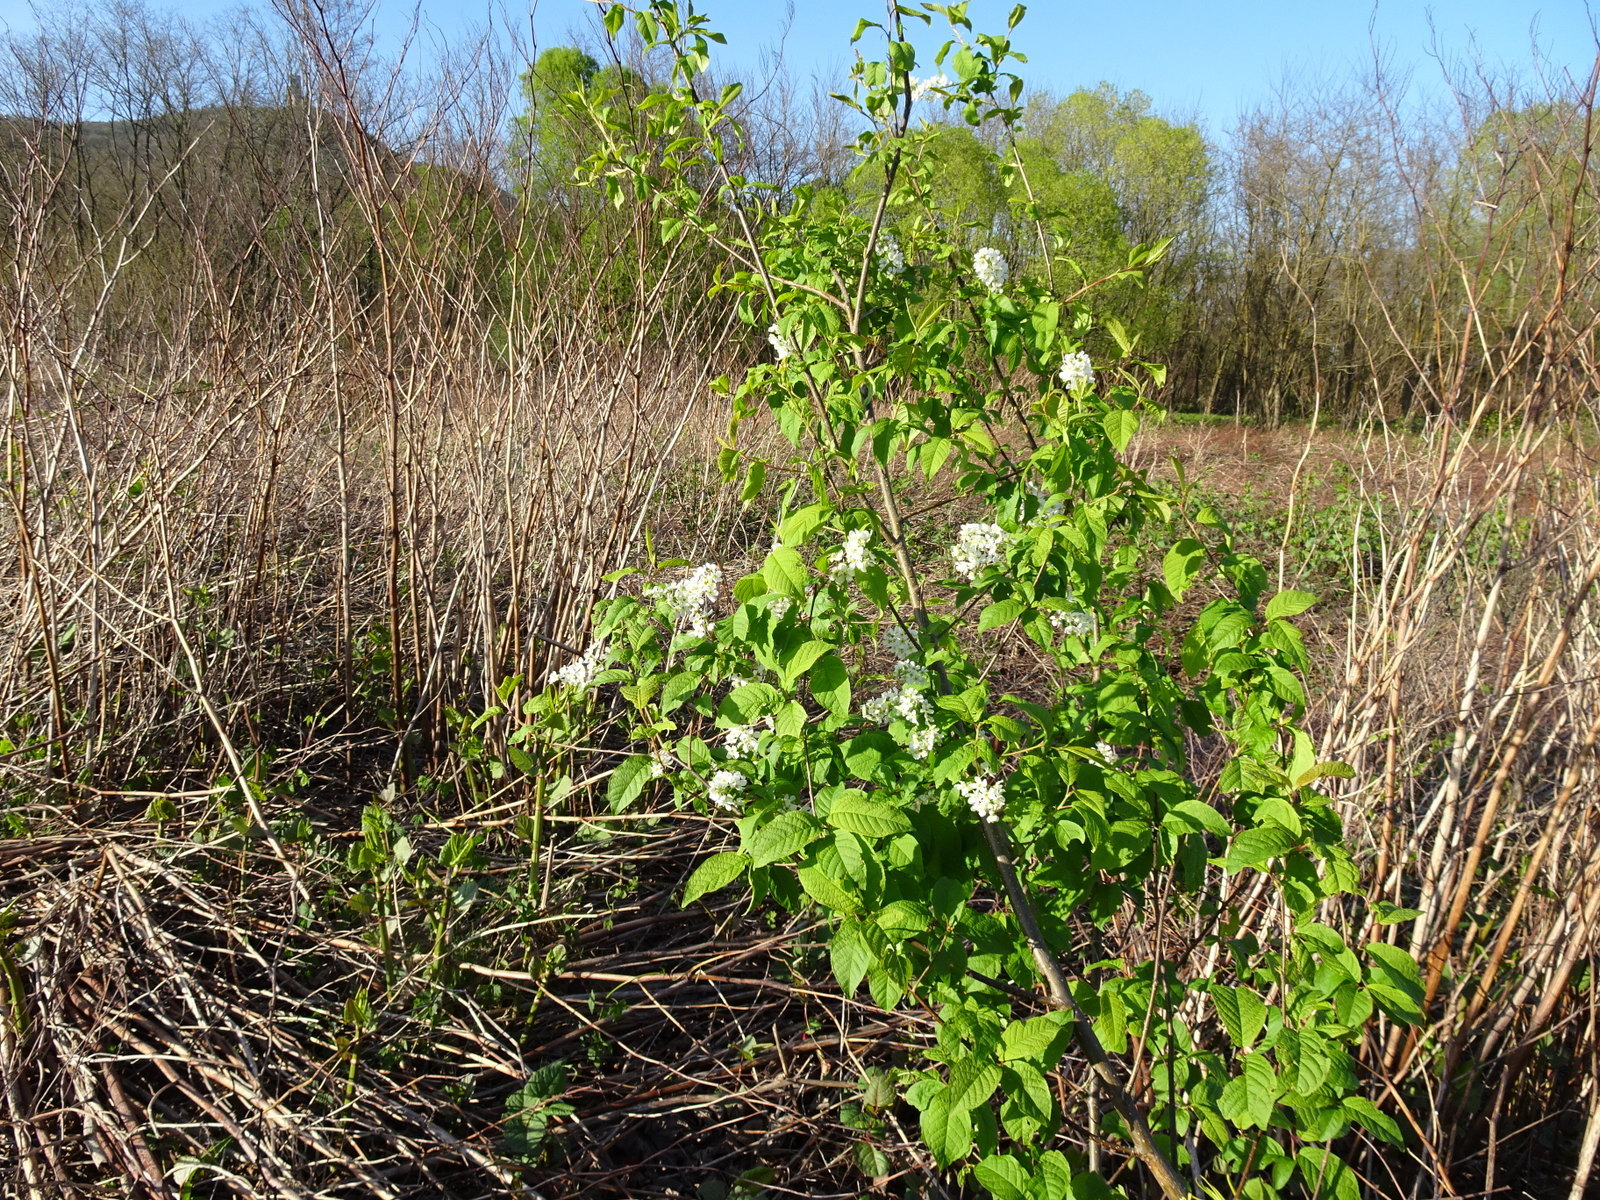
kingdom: Plantae
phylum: Tracheophyta
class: Magnoliopsida
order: Rosales
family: Rosaceae
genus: Prunus
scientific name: Prunus padus
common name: Bird cherry
